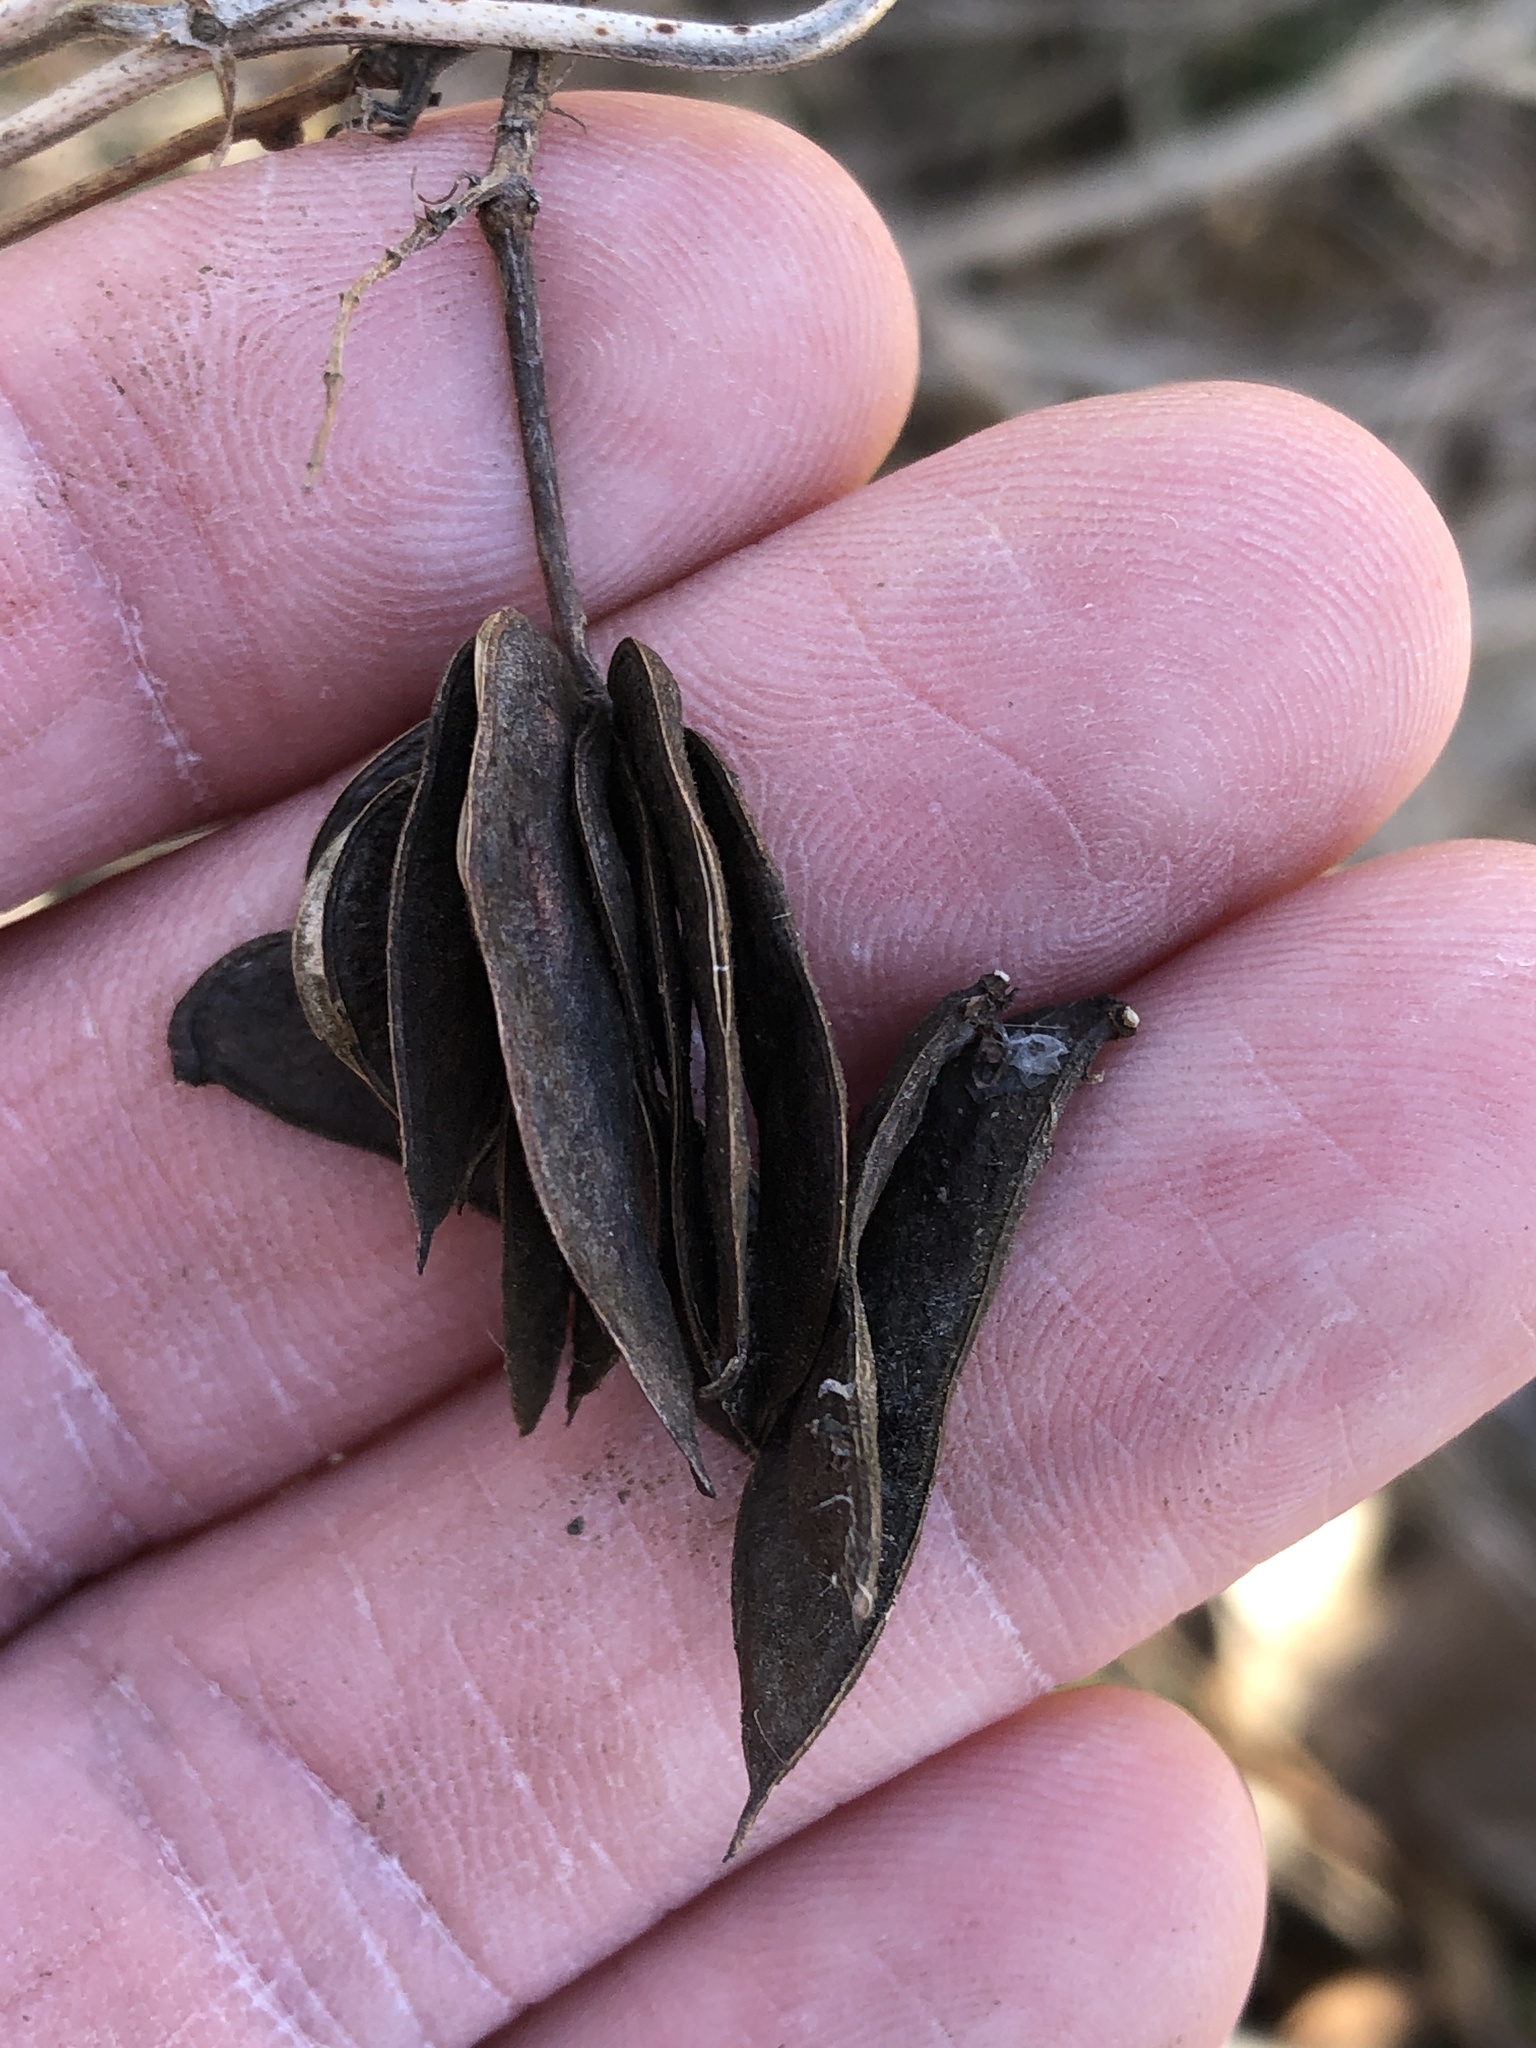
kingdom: Plantae
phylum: Tracheophyta
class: Magnoliopsida
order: Fabales
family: Fabaceae
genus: Desmanthus
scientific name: Desmanthus illinoensis
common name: Illinois bundle-flower
